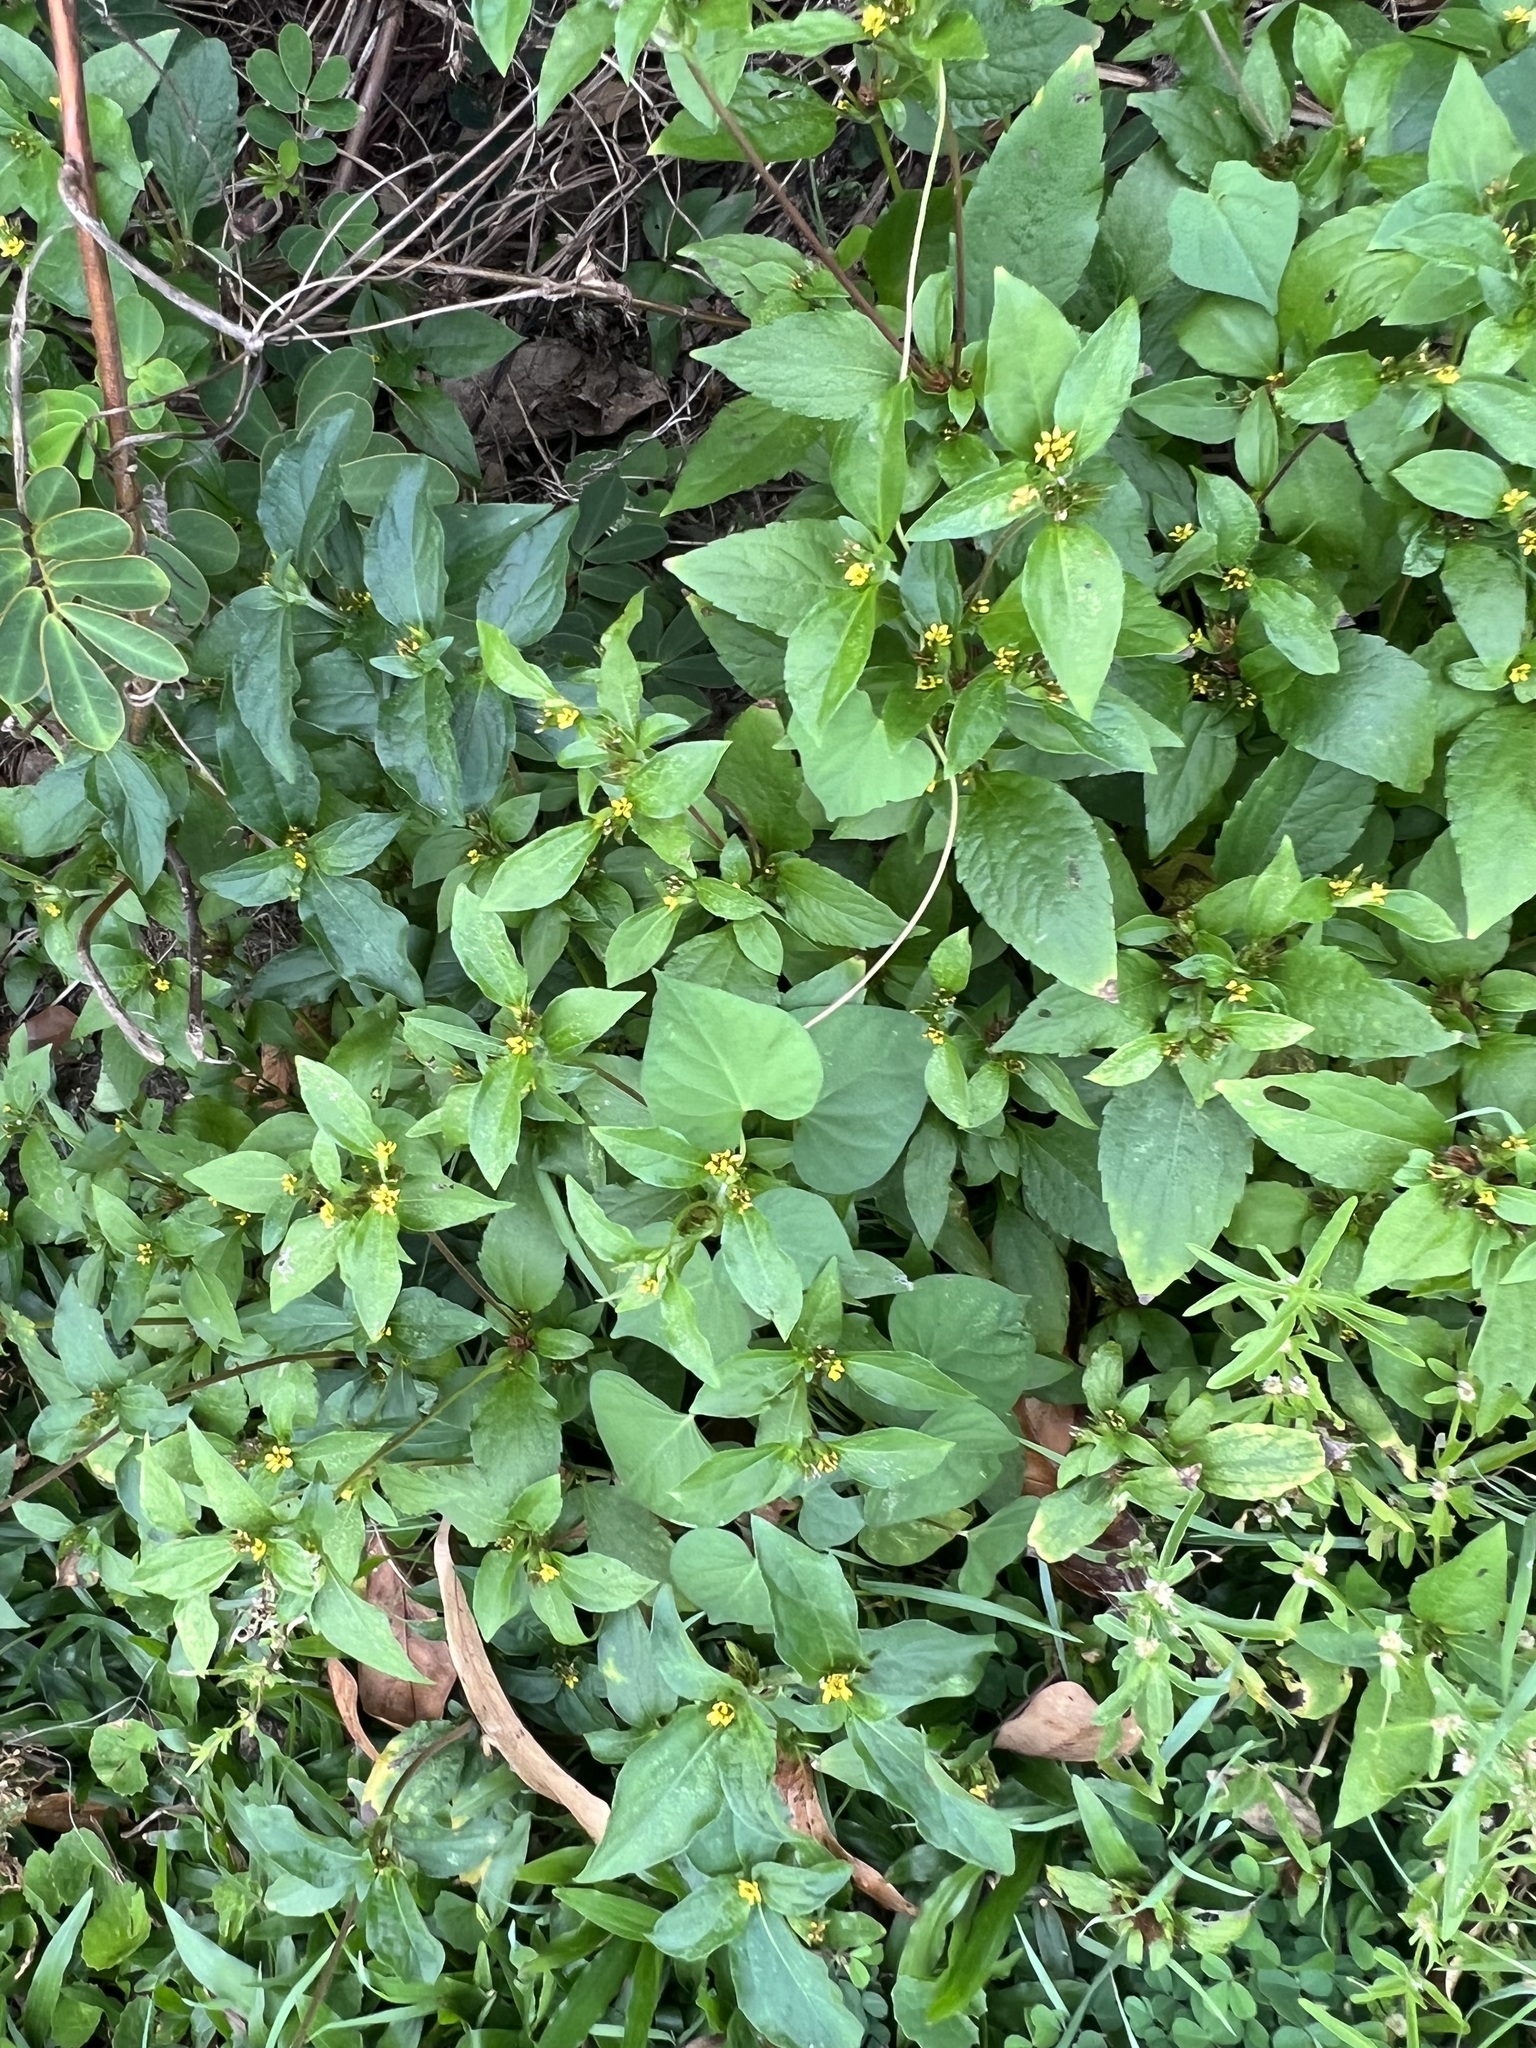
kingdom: Plantae
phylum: Tracheophyta
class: Magnoliopsida
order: Asterales
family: Asteraceae
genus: Synedrella
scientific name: Synedrella nodiflora
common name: Nodeweed
